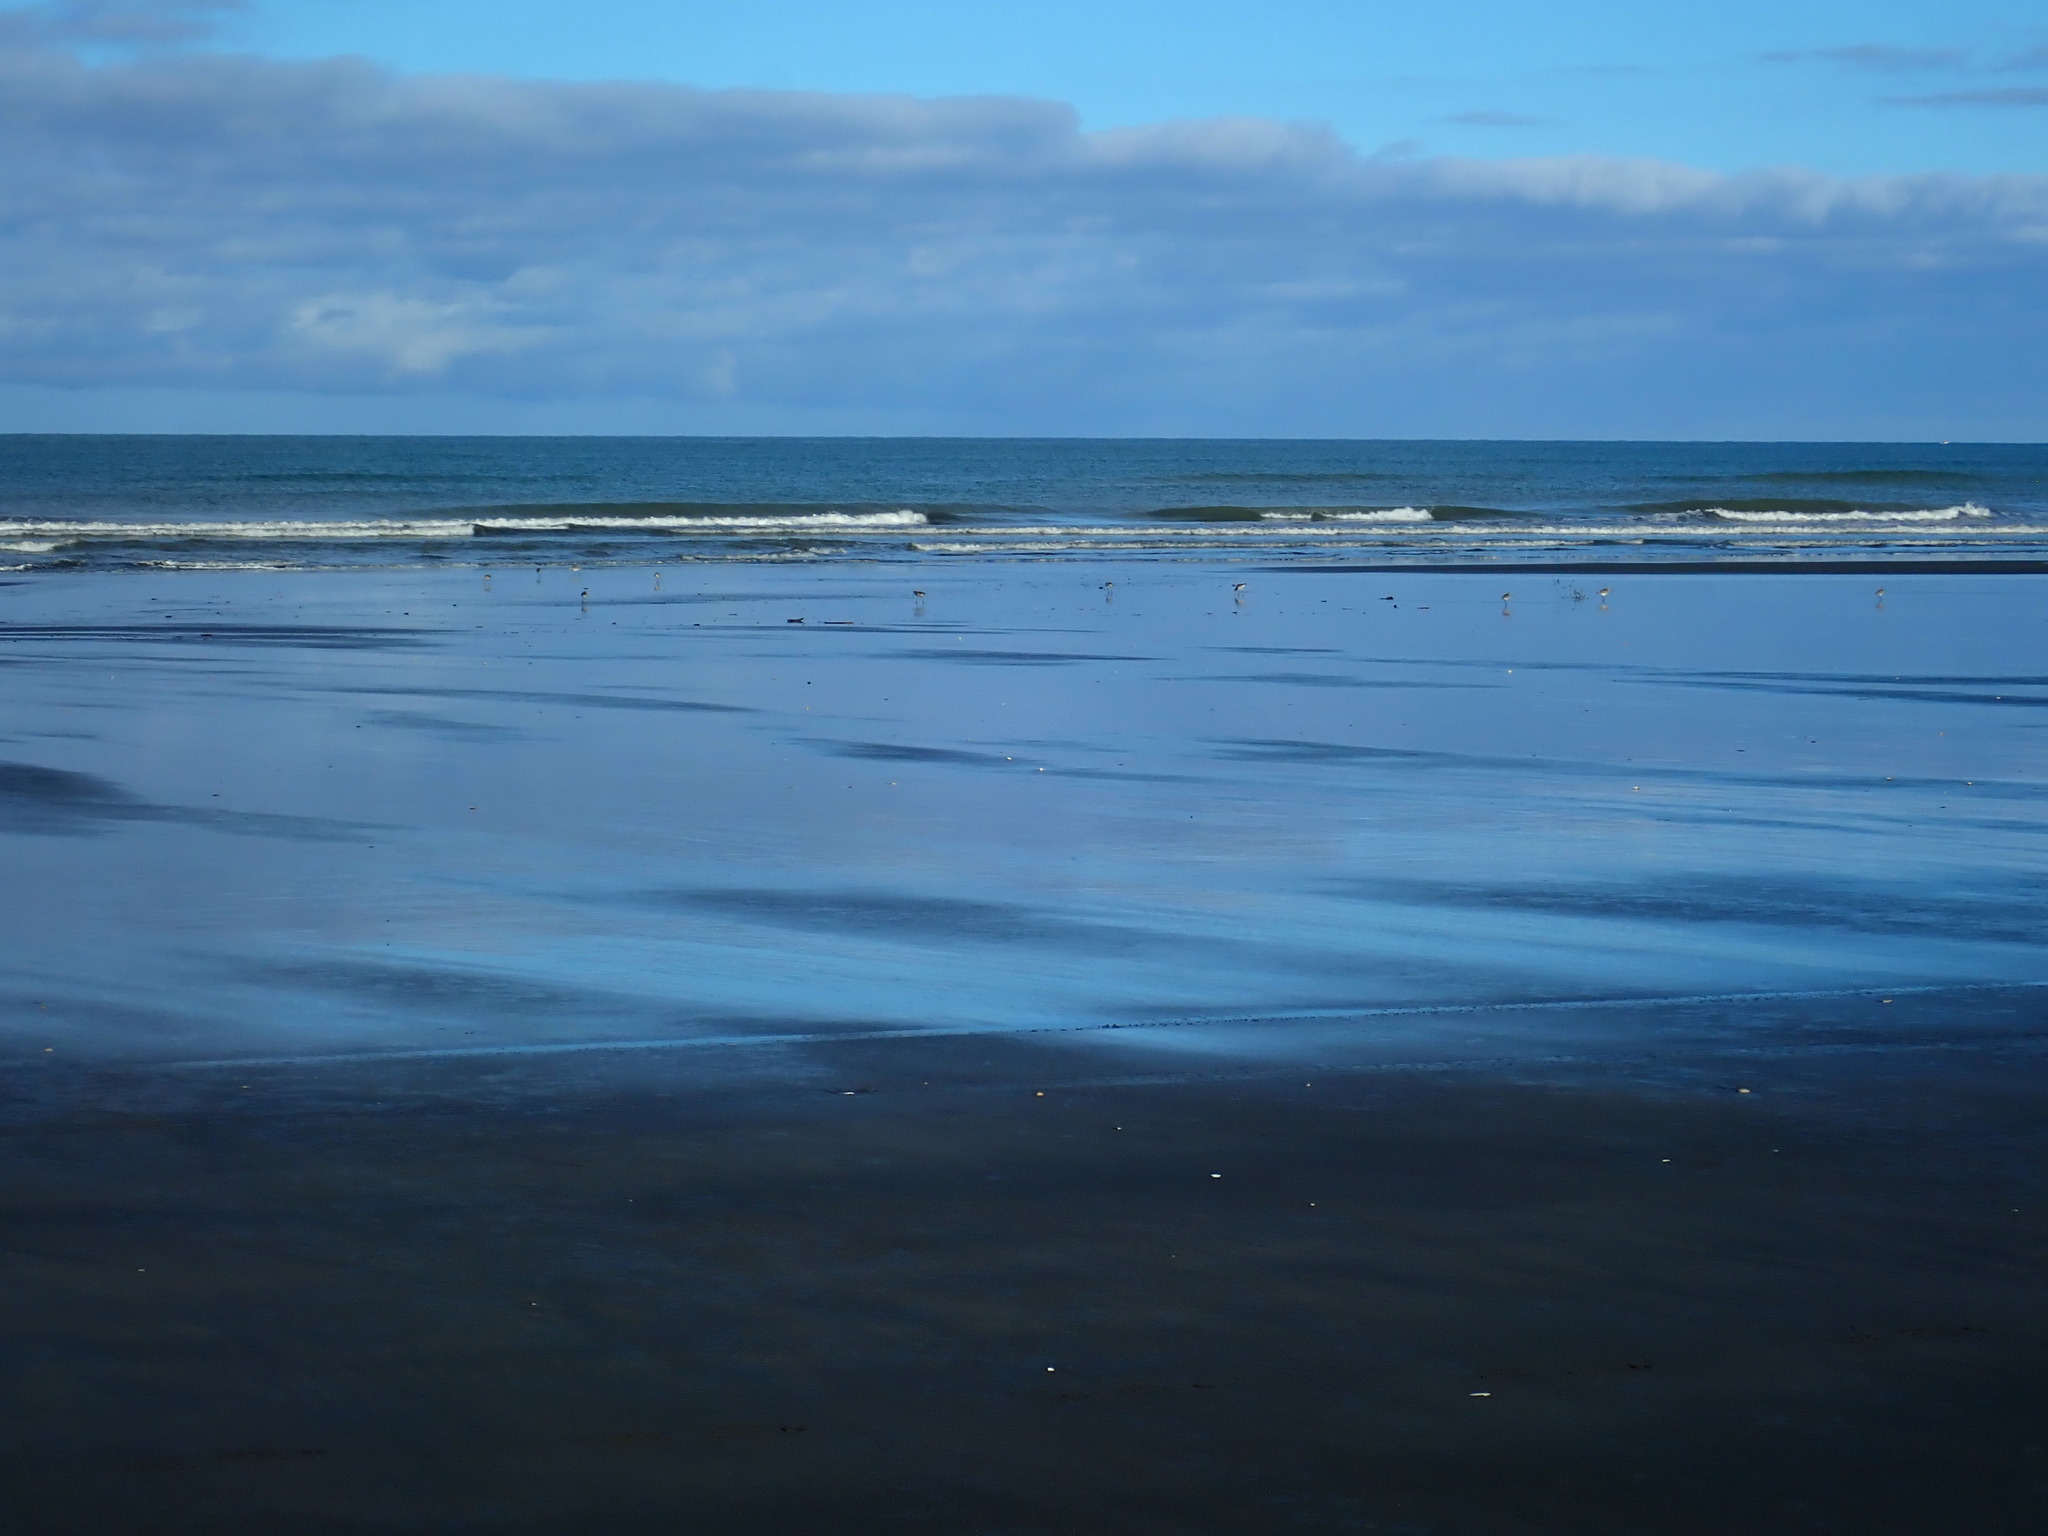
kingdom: Animalia
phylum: Chordata
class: Aves
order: Charadriiformes
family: Scolopacidae
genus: Limosa
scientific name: Limosa lapponica
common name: Bar-tailed godwit
